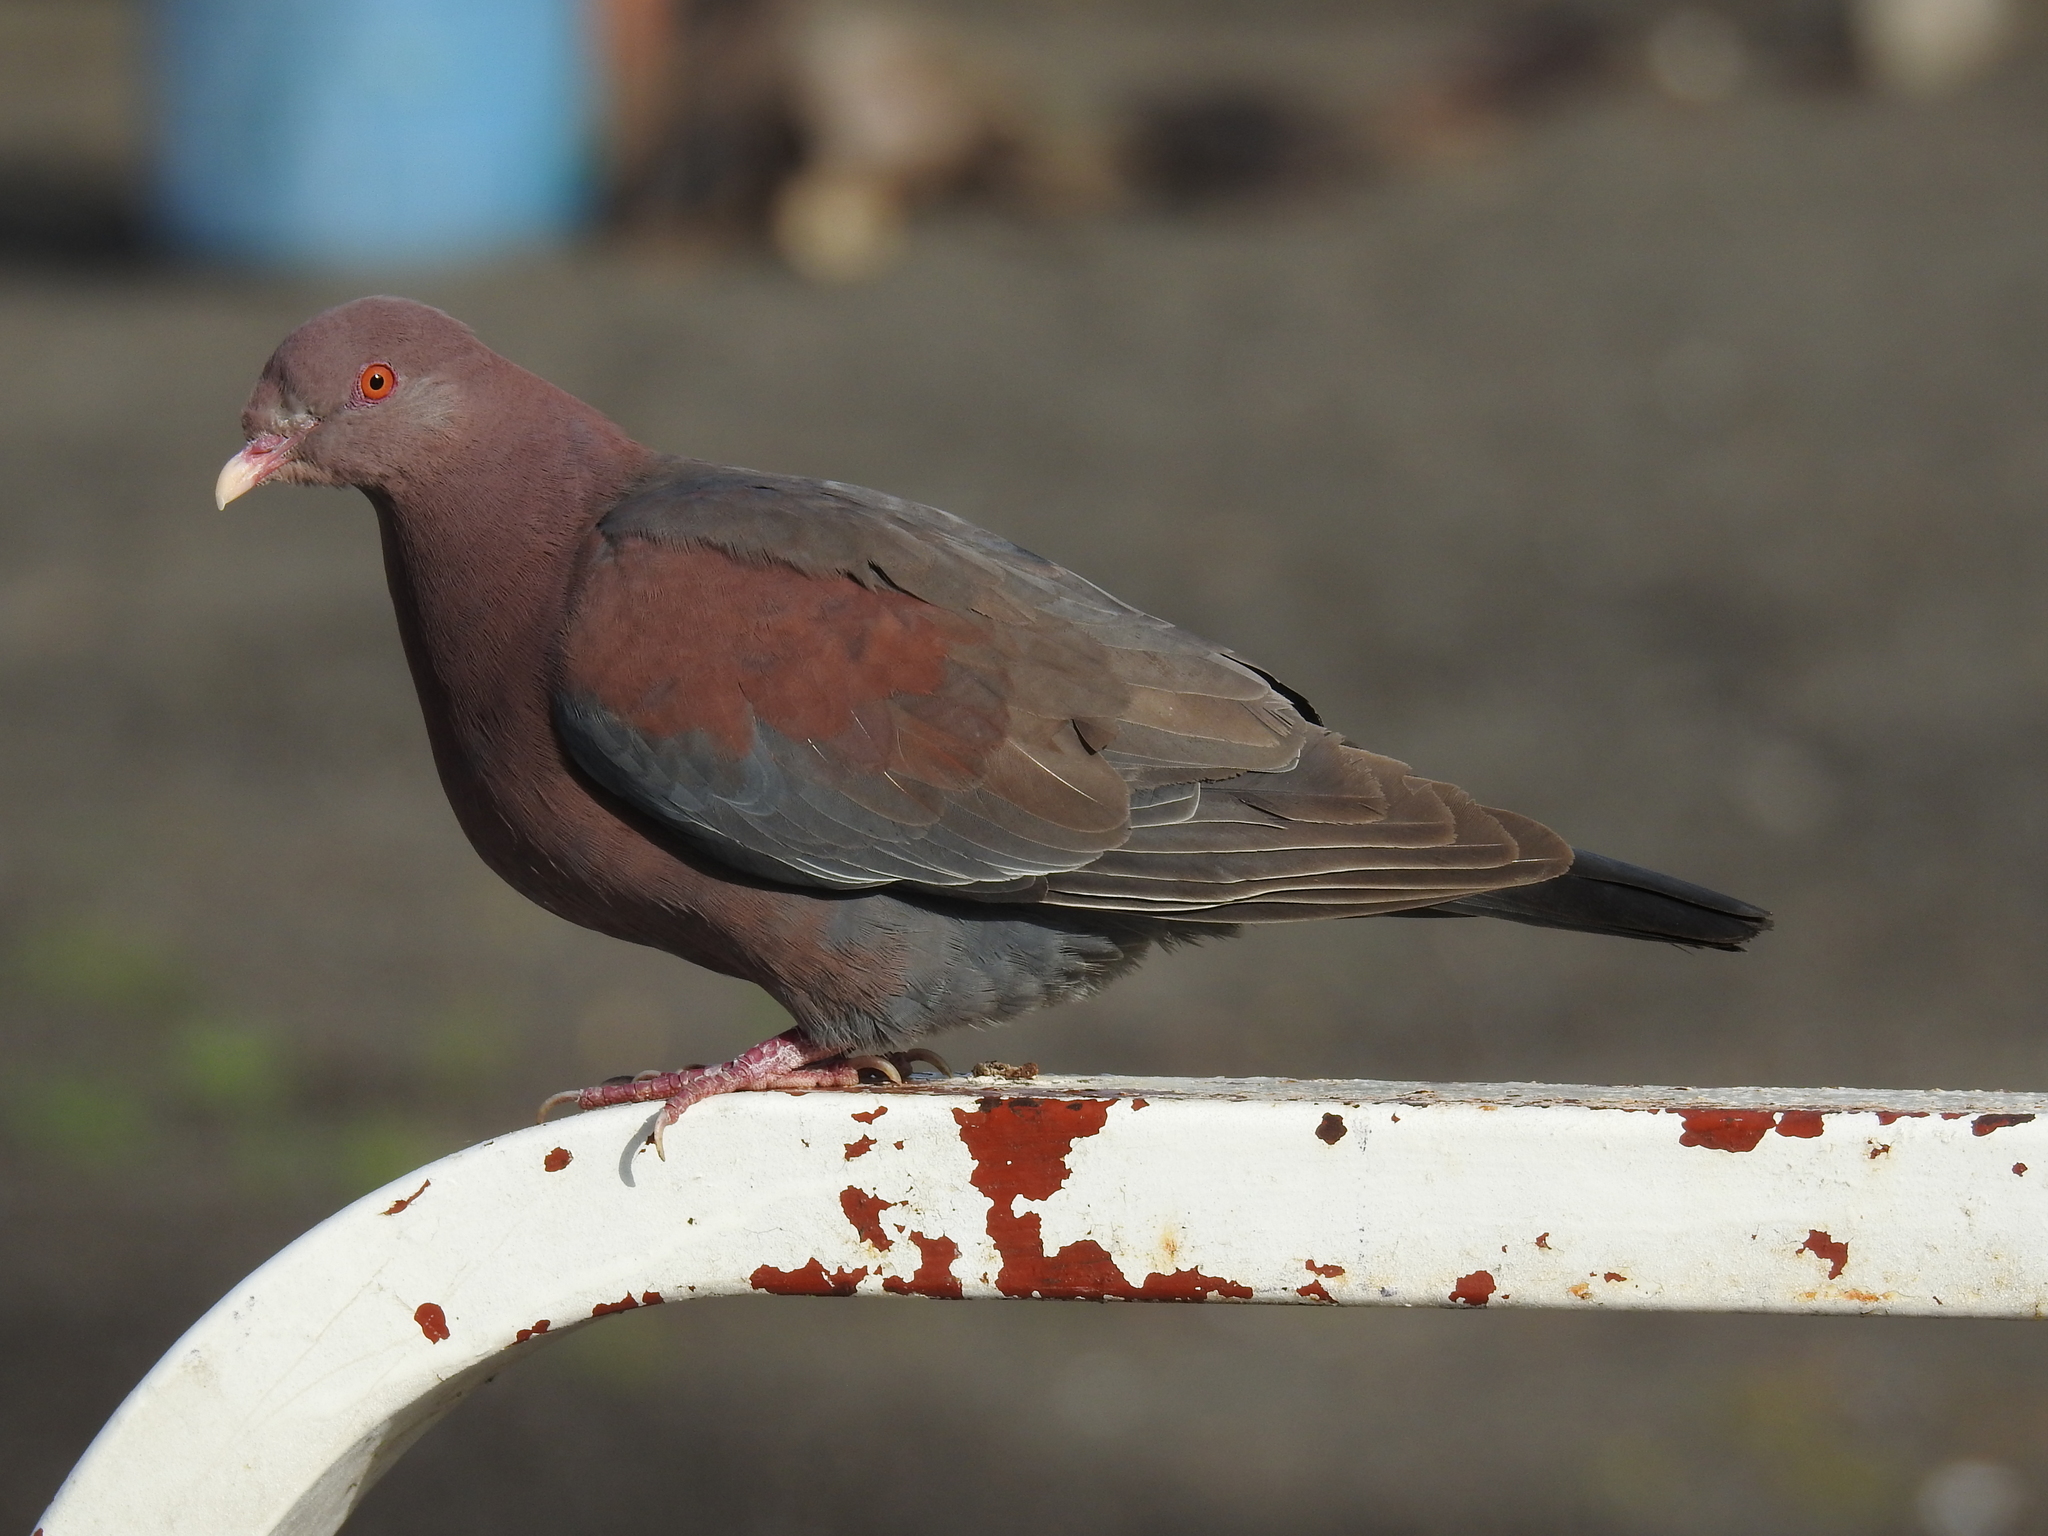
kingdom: Animalia
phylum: Chordata
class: Aves
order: Columbiformes
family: Columbidae
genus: Patagioenas
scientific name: Patagioenas flavirostris
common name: Red-billed pigeon
